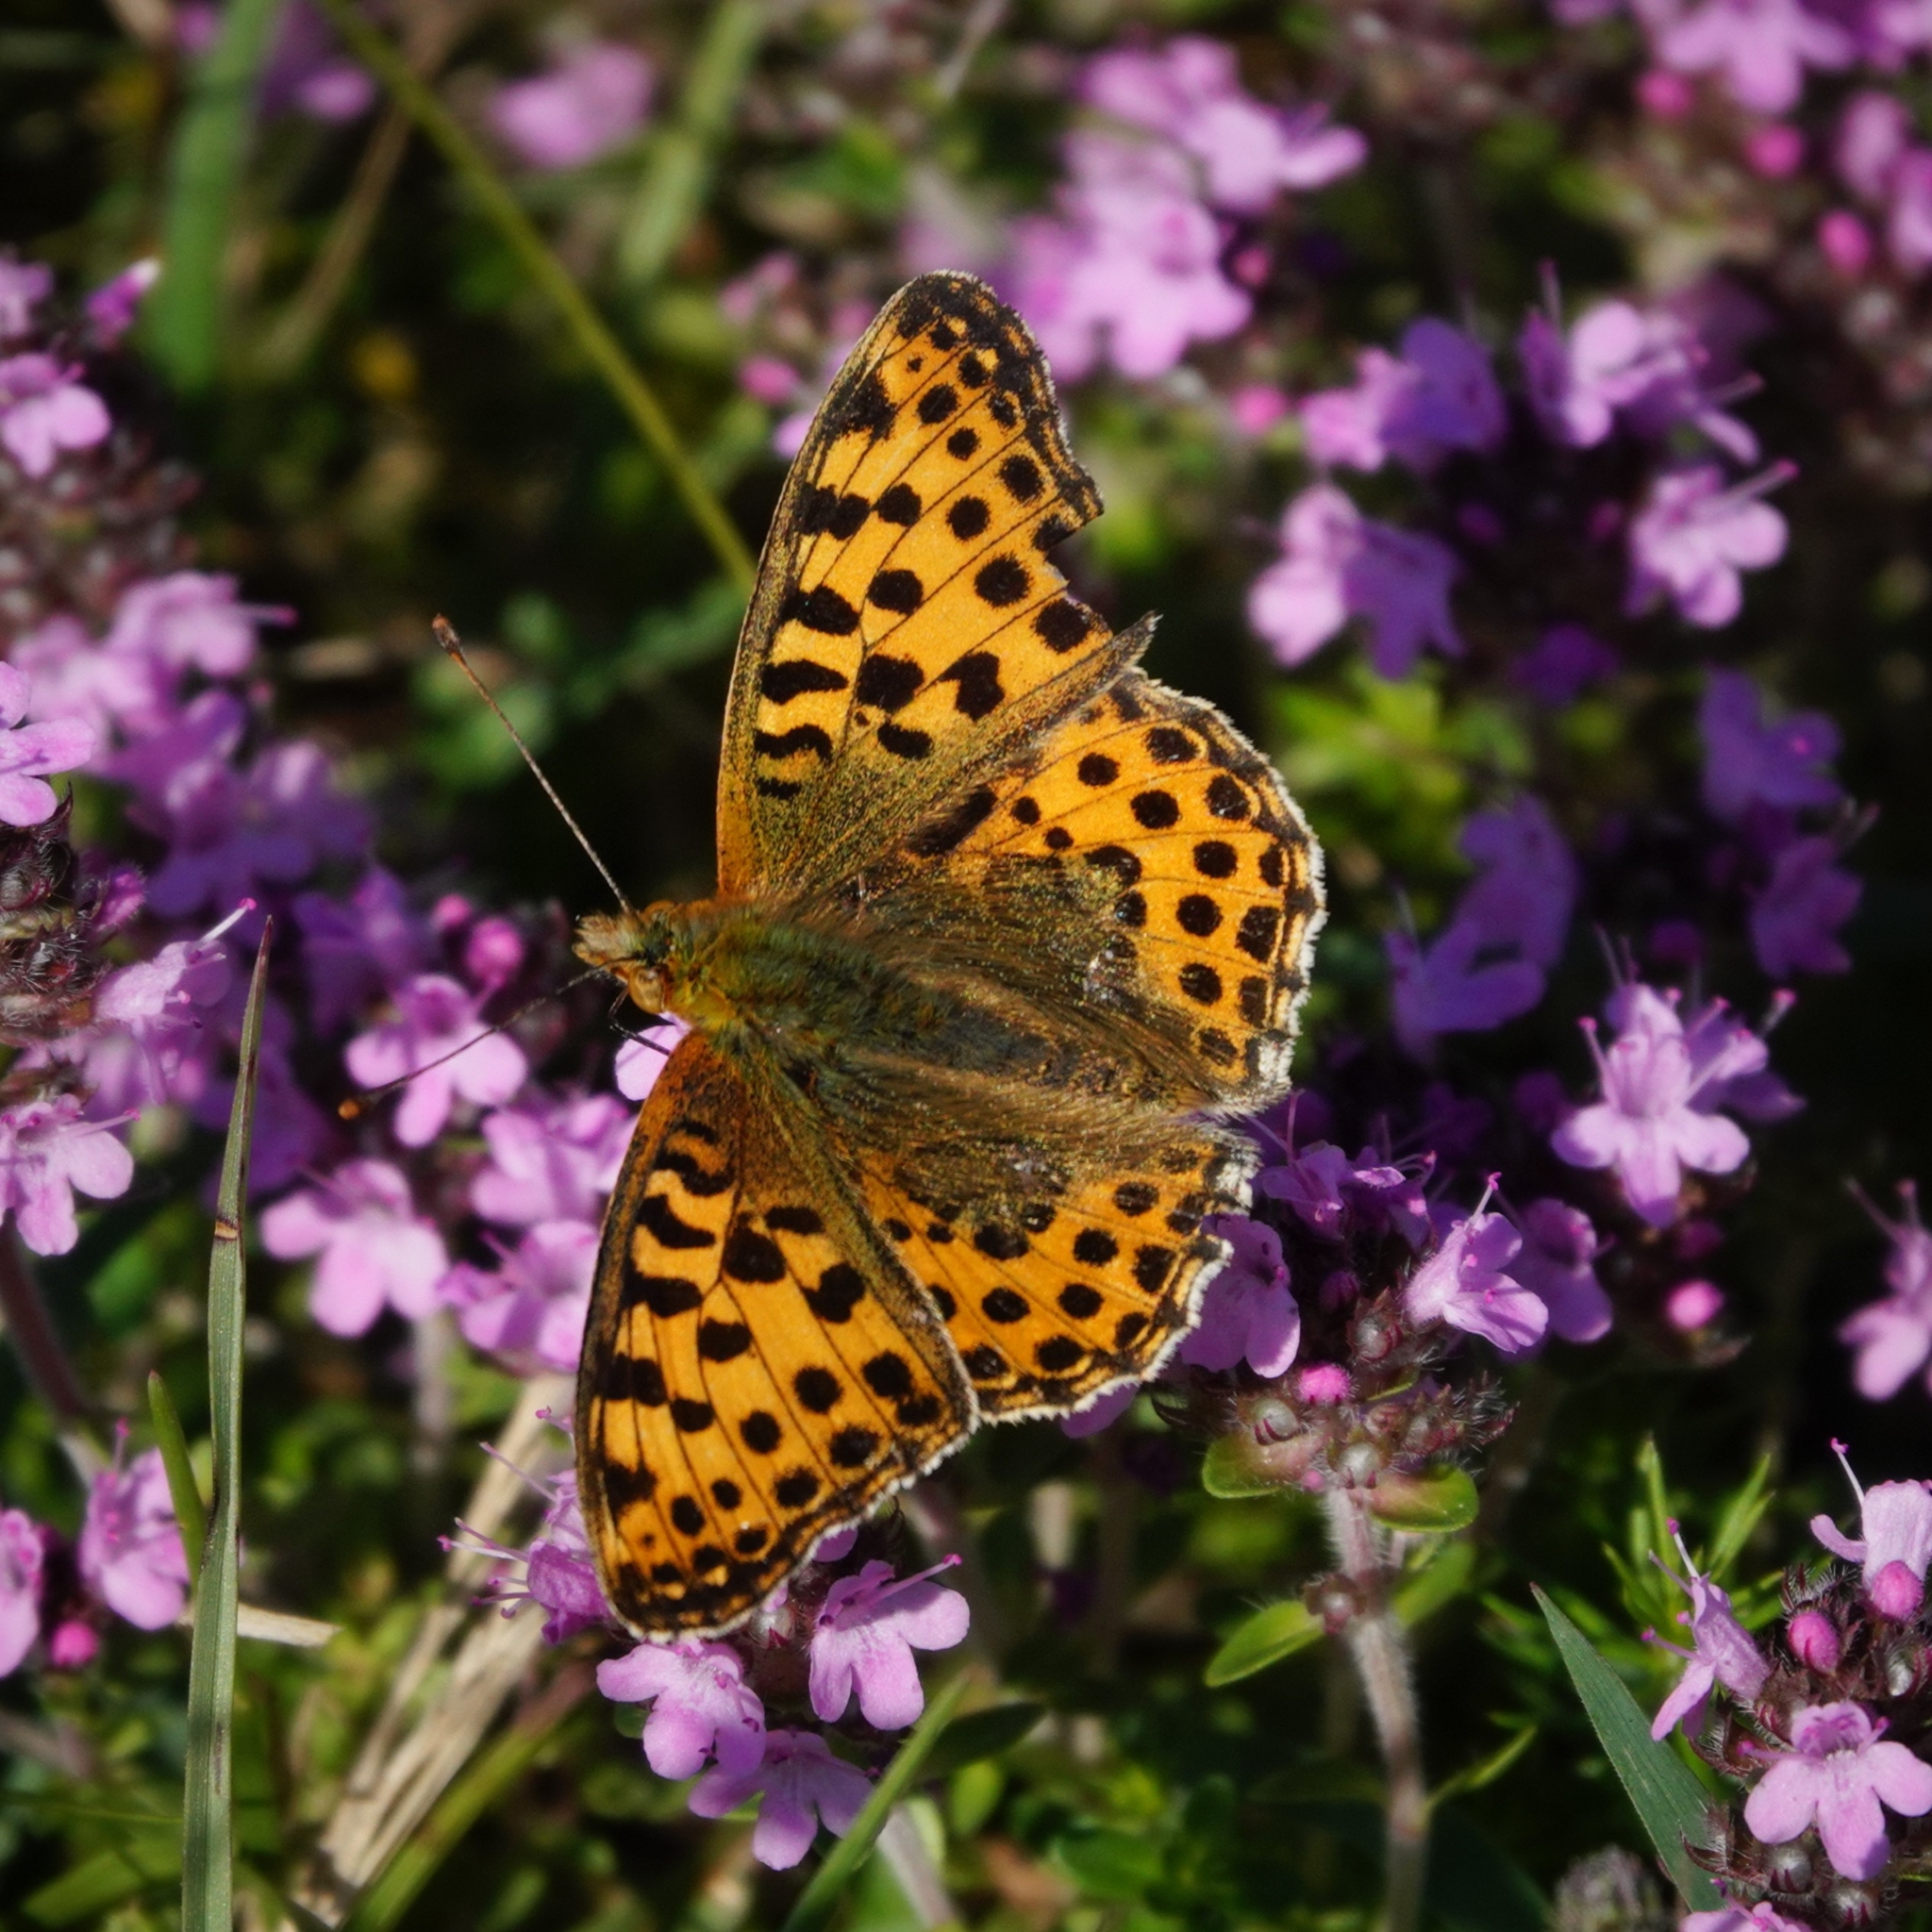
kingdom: Animalia
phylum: Arthropoda
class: Insecta
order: Lepidoptera
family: Nymphalidae
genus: Issoria
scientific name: Issoria lathonia
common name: Queen of spain fritillary
